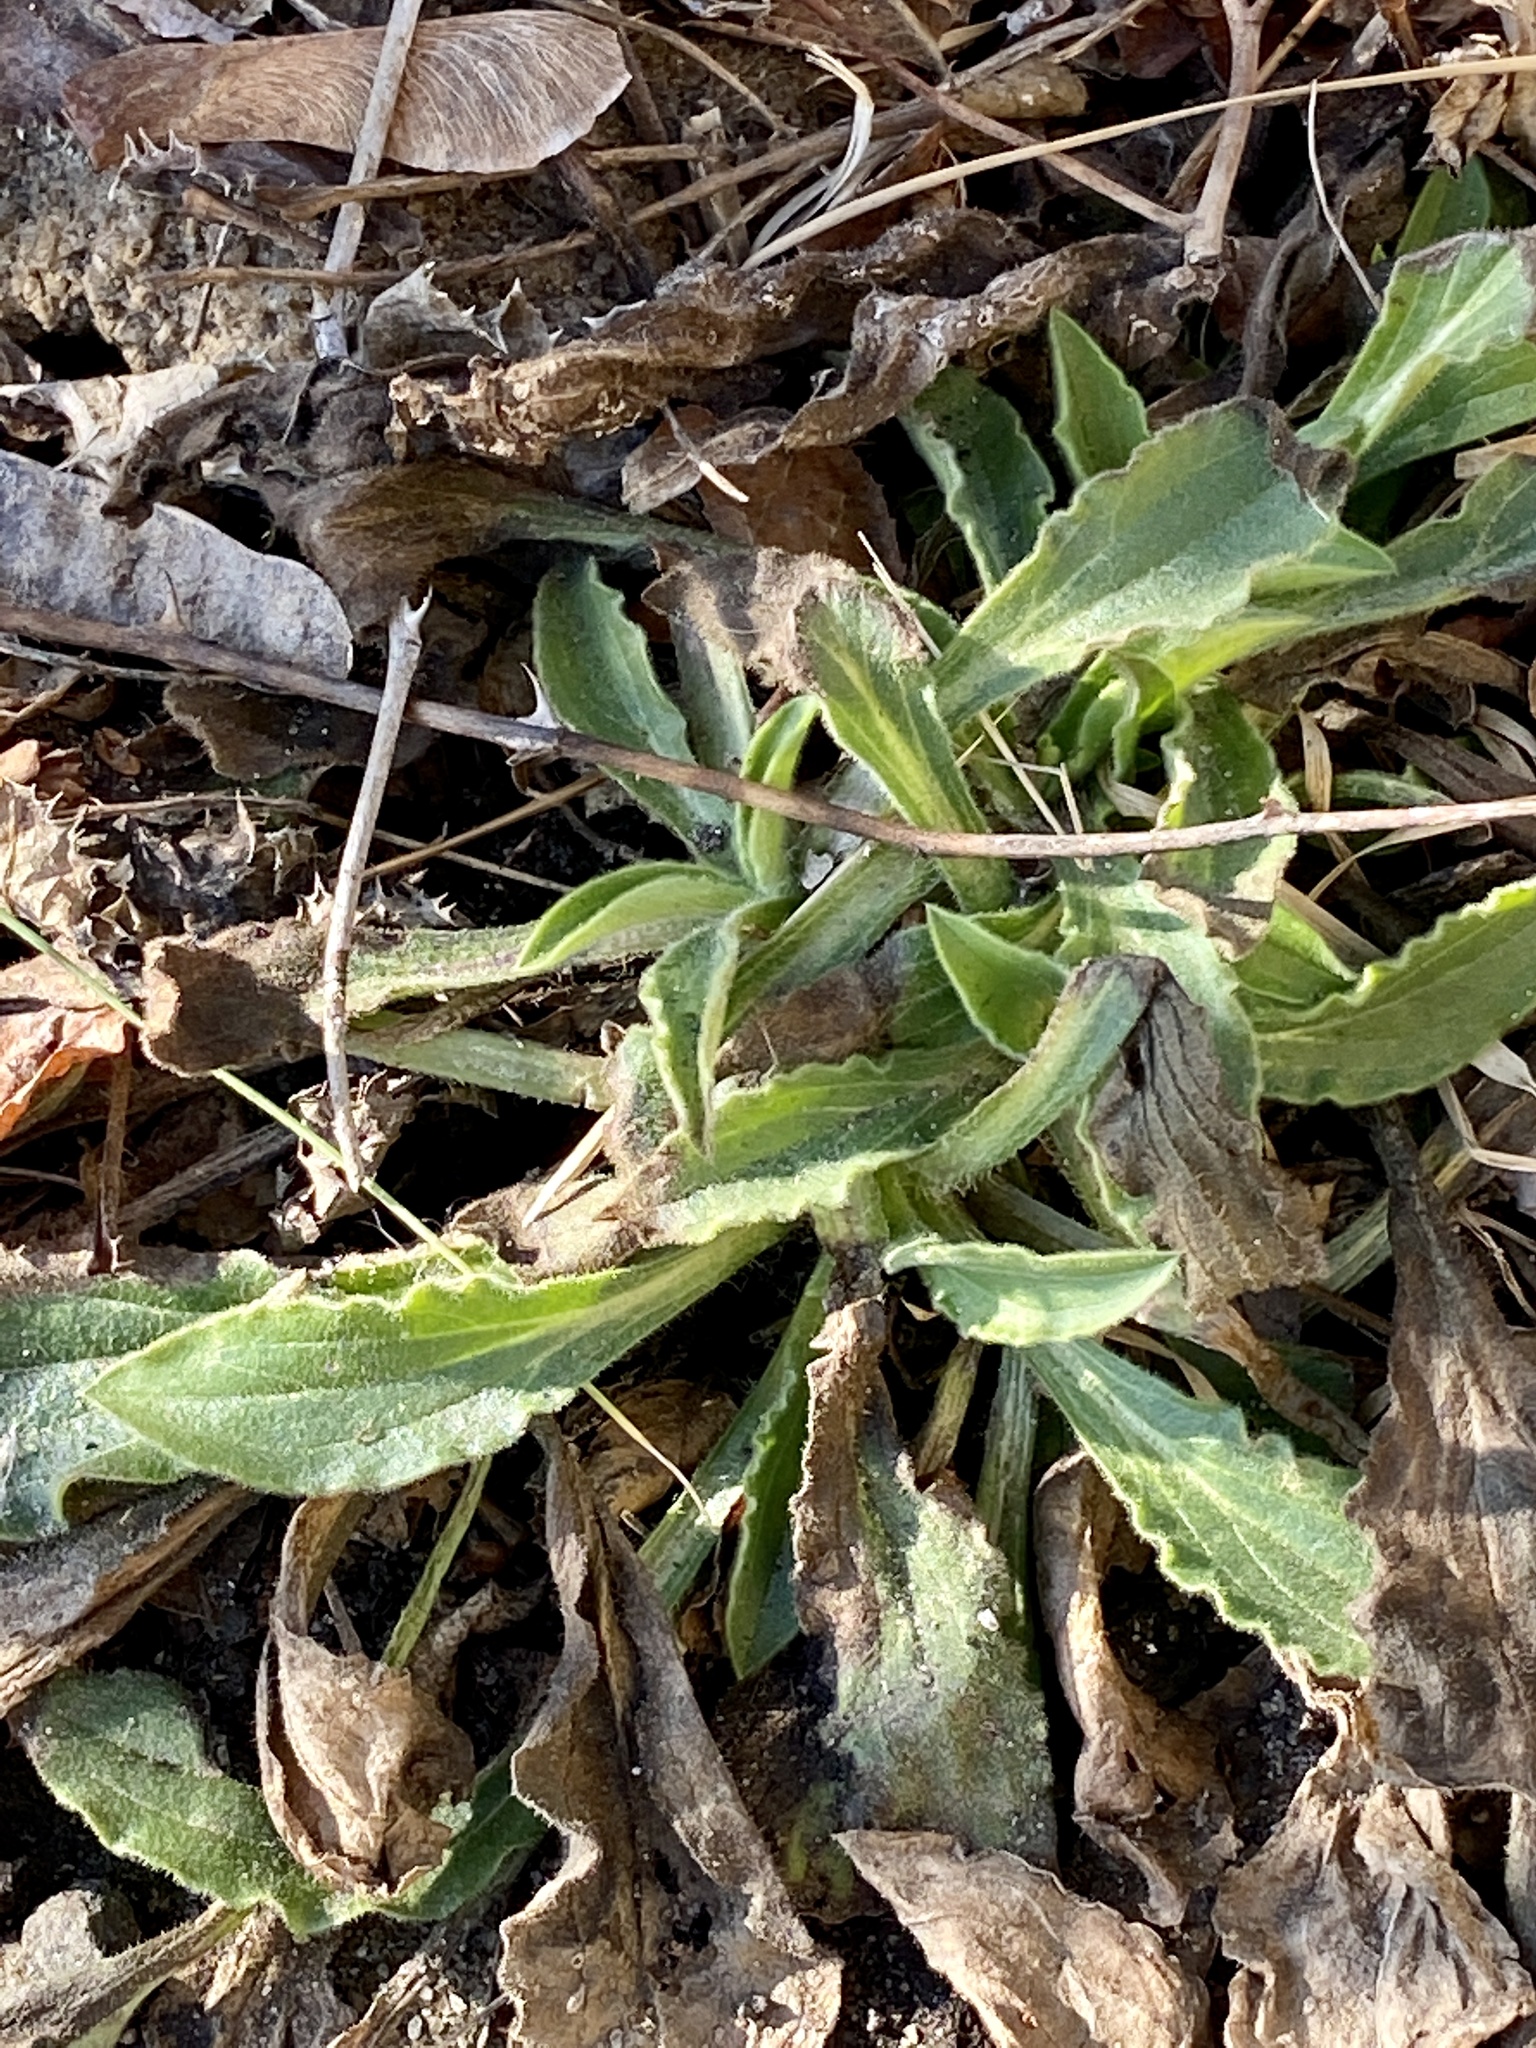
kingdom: Plantae
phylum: Tracheophyta
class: Magnoliopsida
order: Caryophyllales
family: Caryophyllaceae
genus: Silene
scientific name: Silene latifolia
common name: White campion
